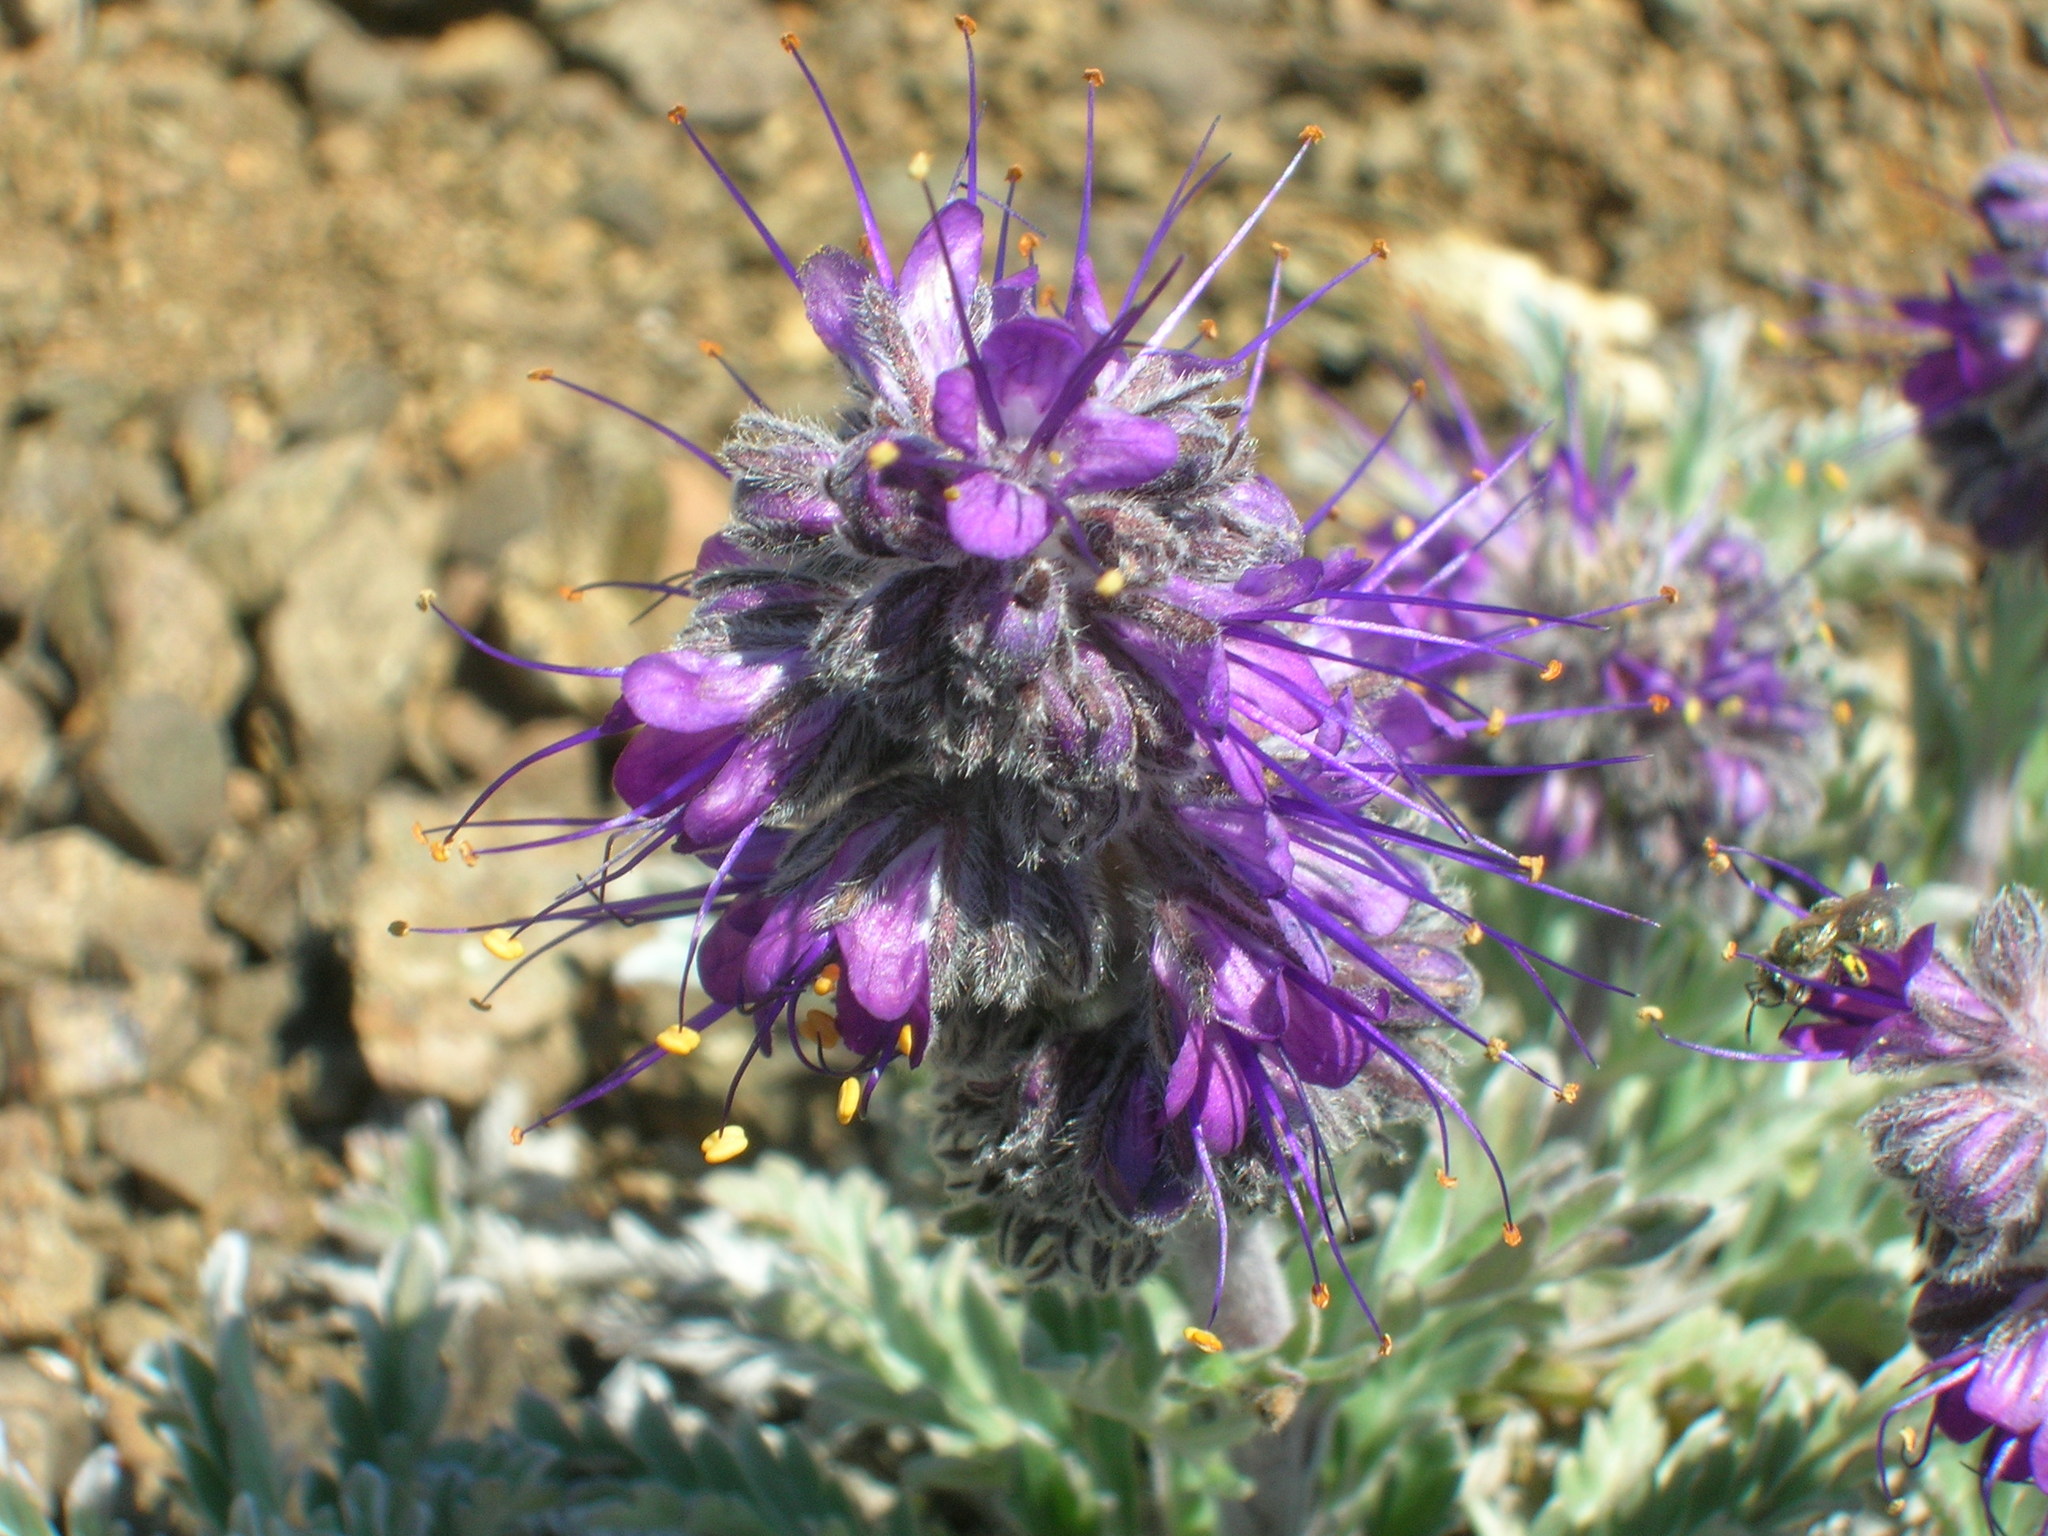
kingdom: Plantae
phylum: Tracheophyta
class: Magnoliopsida
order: Boraginales
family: Hydrophyllaceae
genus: Phacelia
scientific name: Phacelia sericea
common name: Silky phacelia
